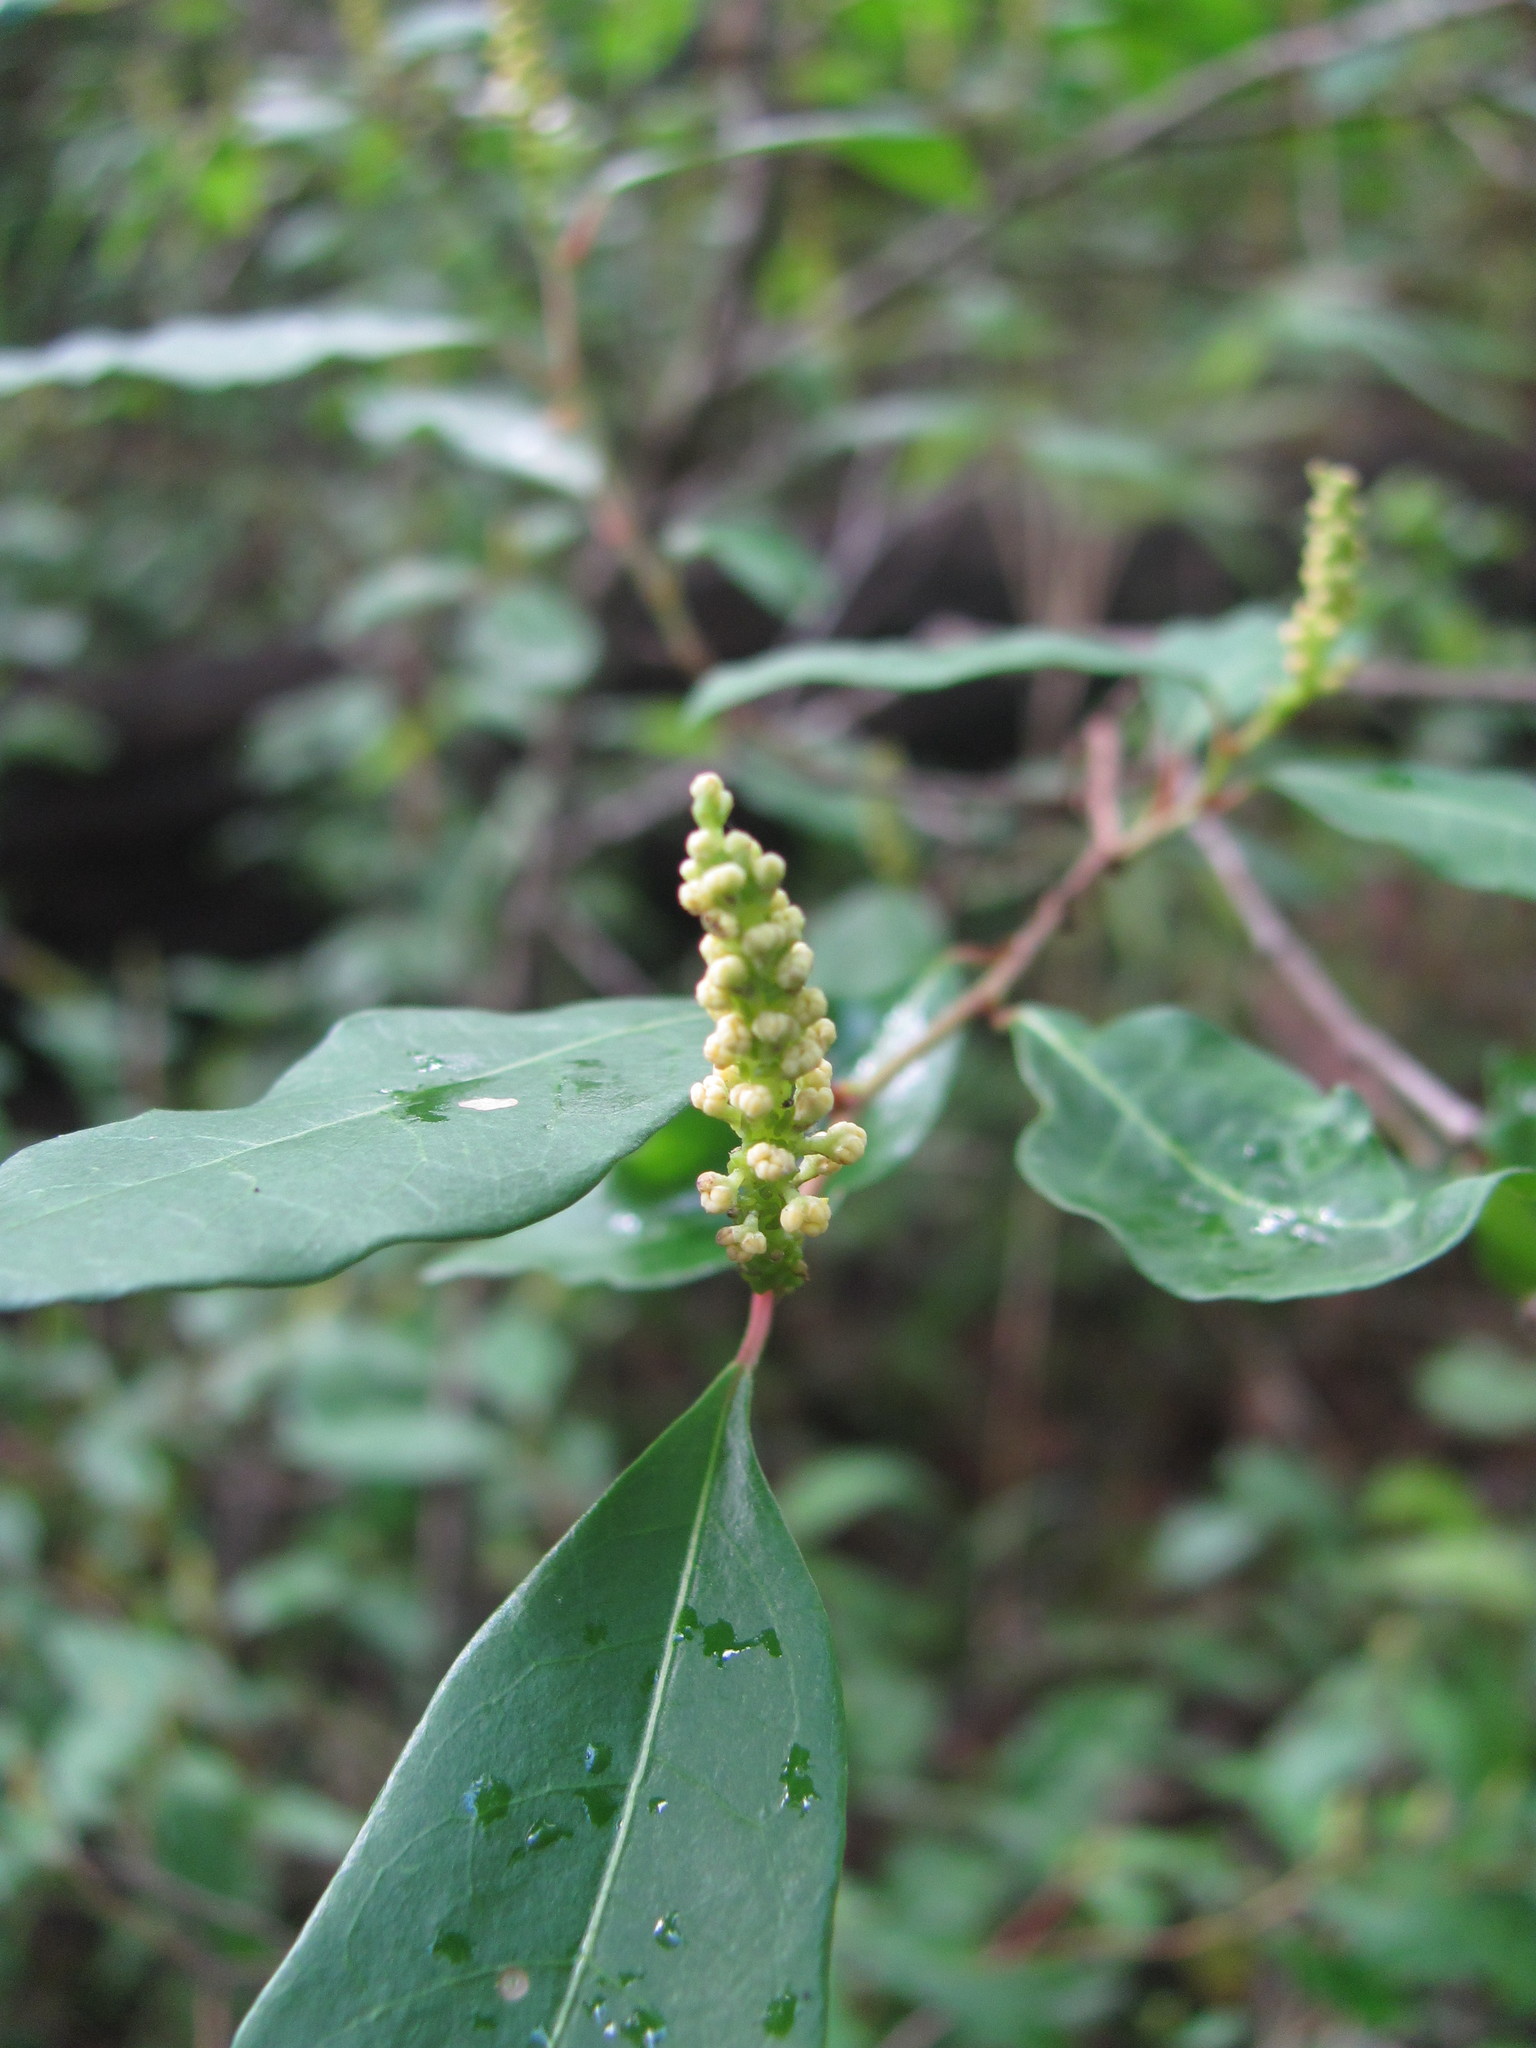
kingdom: Plantae
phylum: Tracheophyta
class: Magnoliopsida
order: Malpighiales
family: Euphorbiaceae
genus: Ditrysinia
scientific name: Ditrysinia fruticosa
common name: Gulf sebastian-bush
